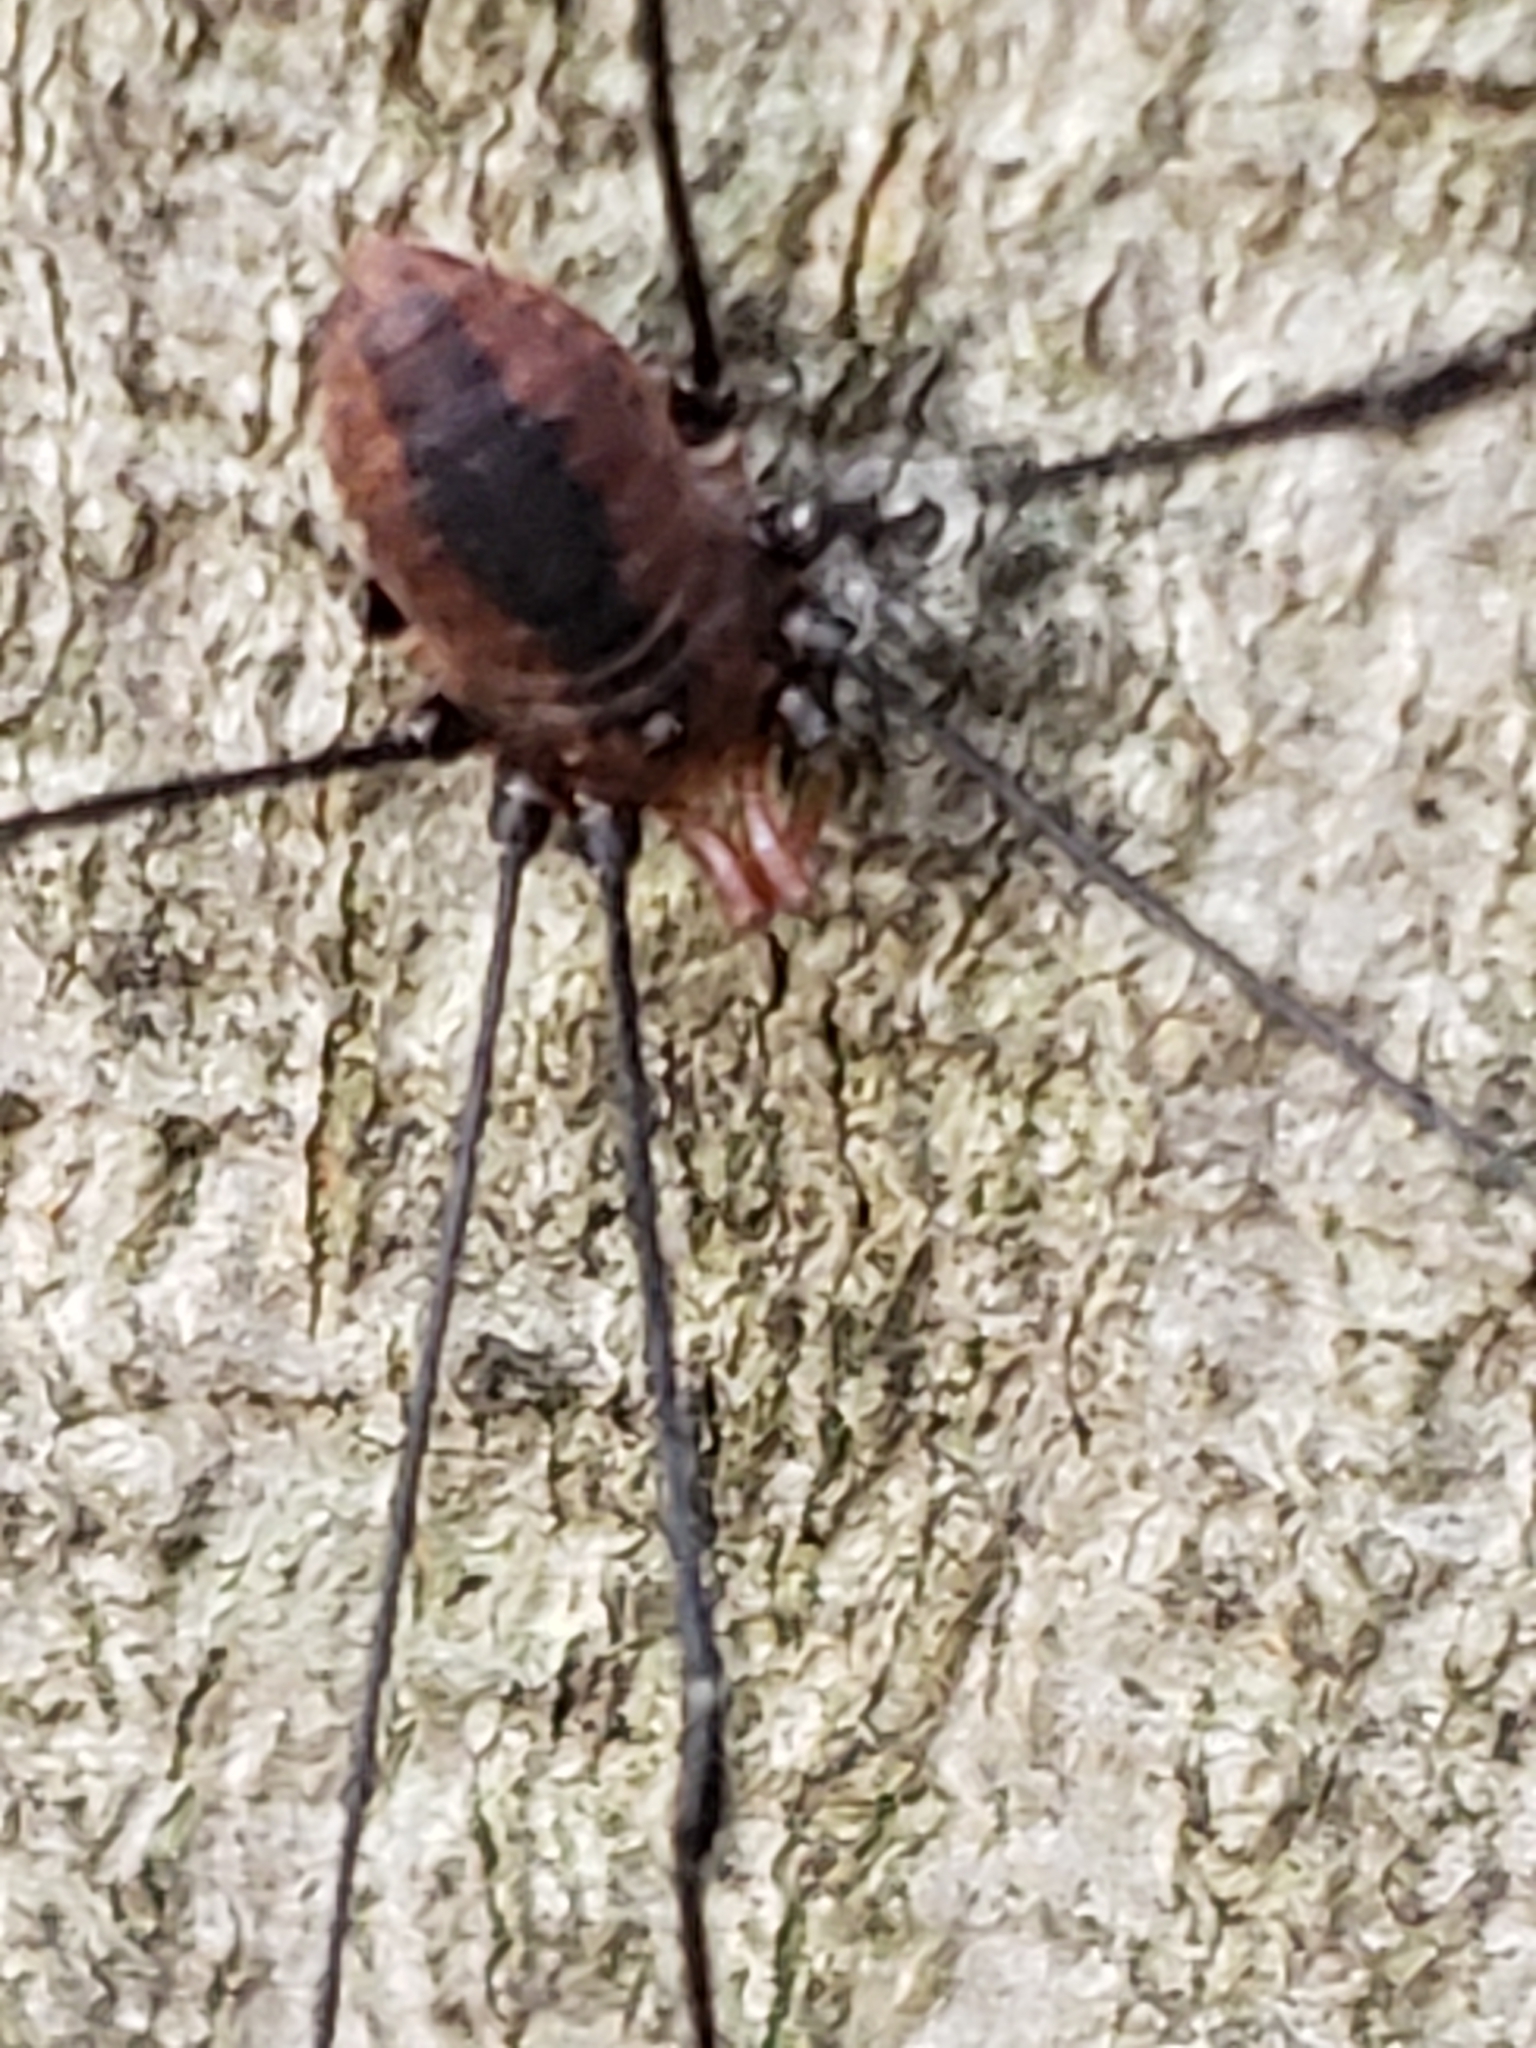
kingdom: Animalia
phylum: Arthropoda
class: Arachnida
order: Opiliones
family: Sclerosomatidae
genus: Leiobunum
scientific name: Leiobunum vittatum
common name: Eastern harvestman
